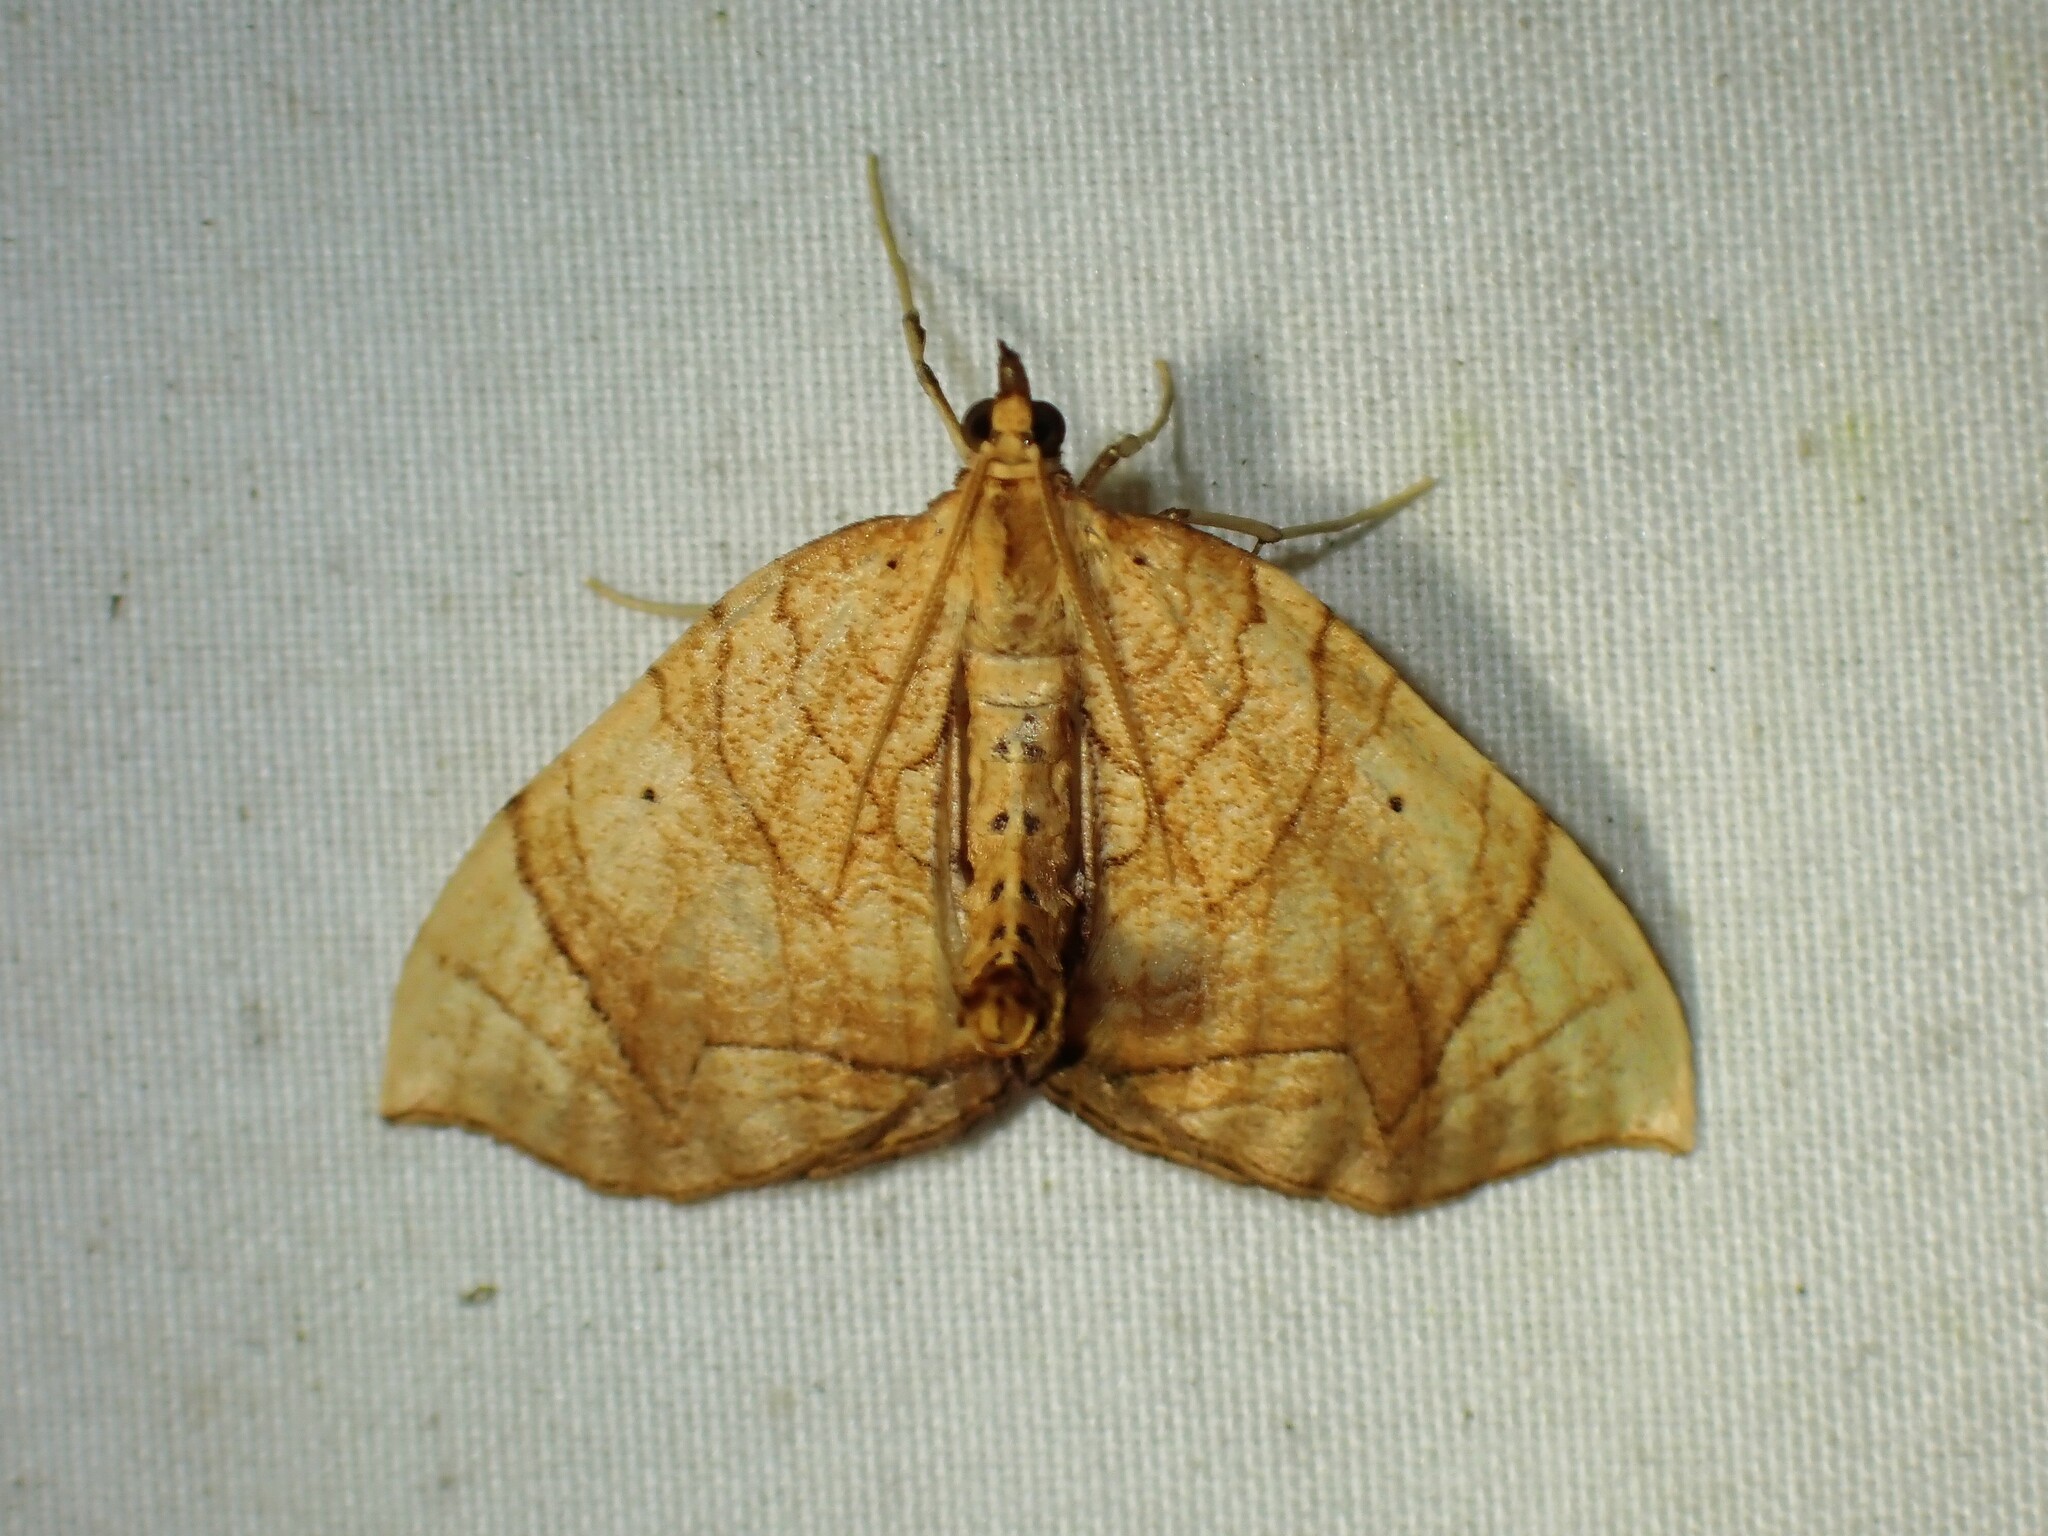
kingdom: Animalia
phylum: Arthropoda
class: Insecta
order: Lepidoptera
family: Geometridae
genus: Eulithis
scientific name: Eulithis
